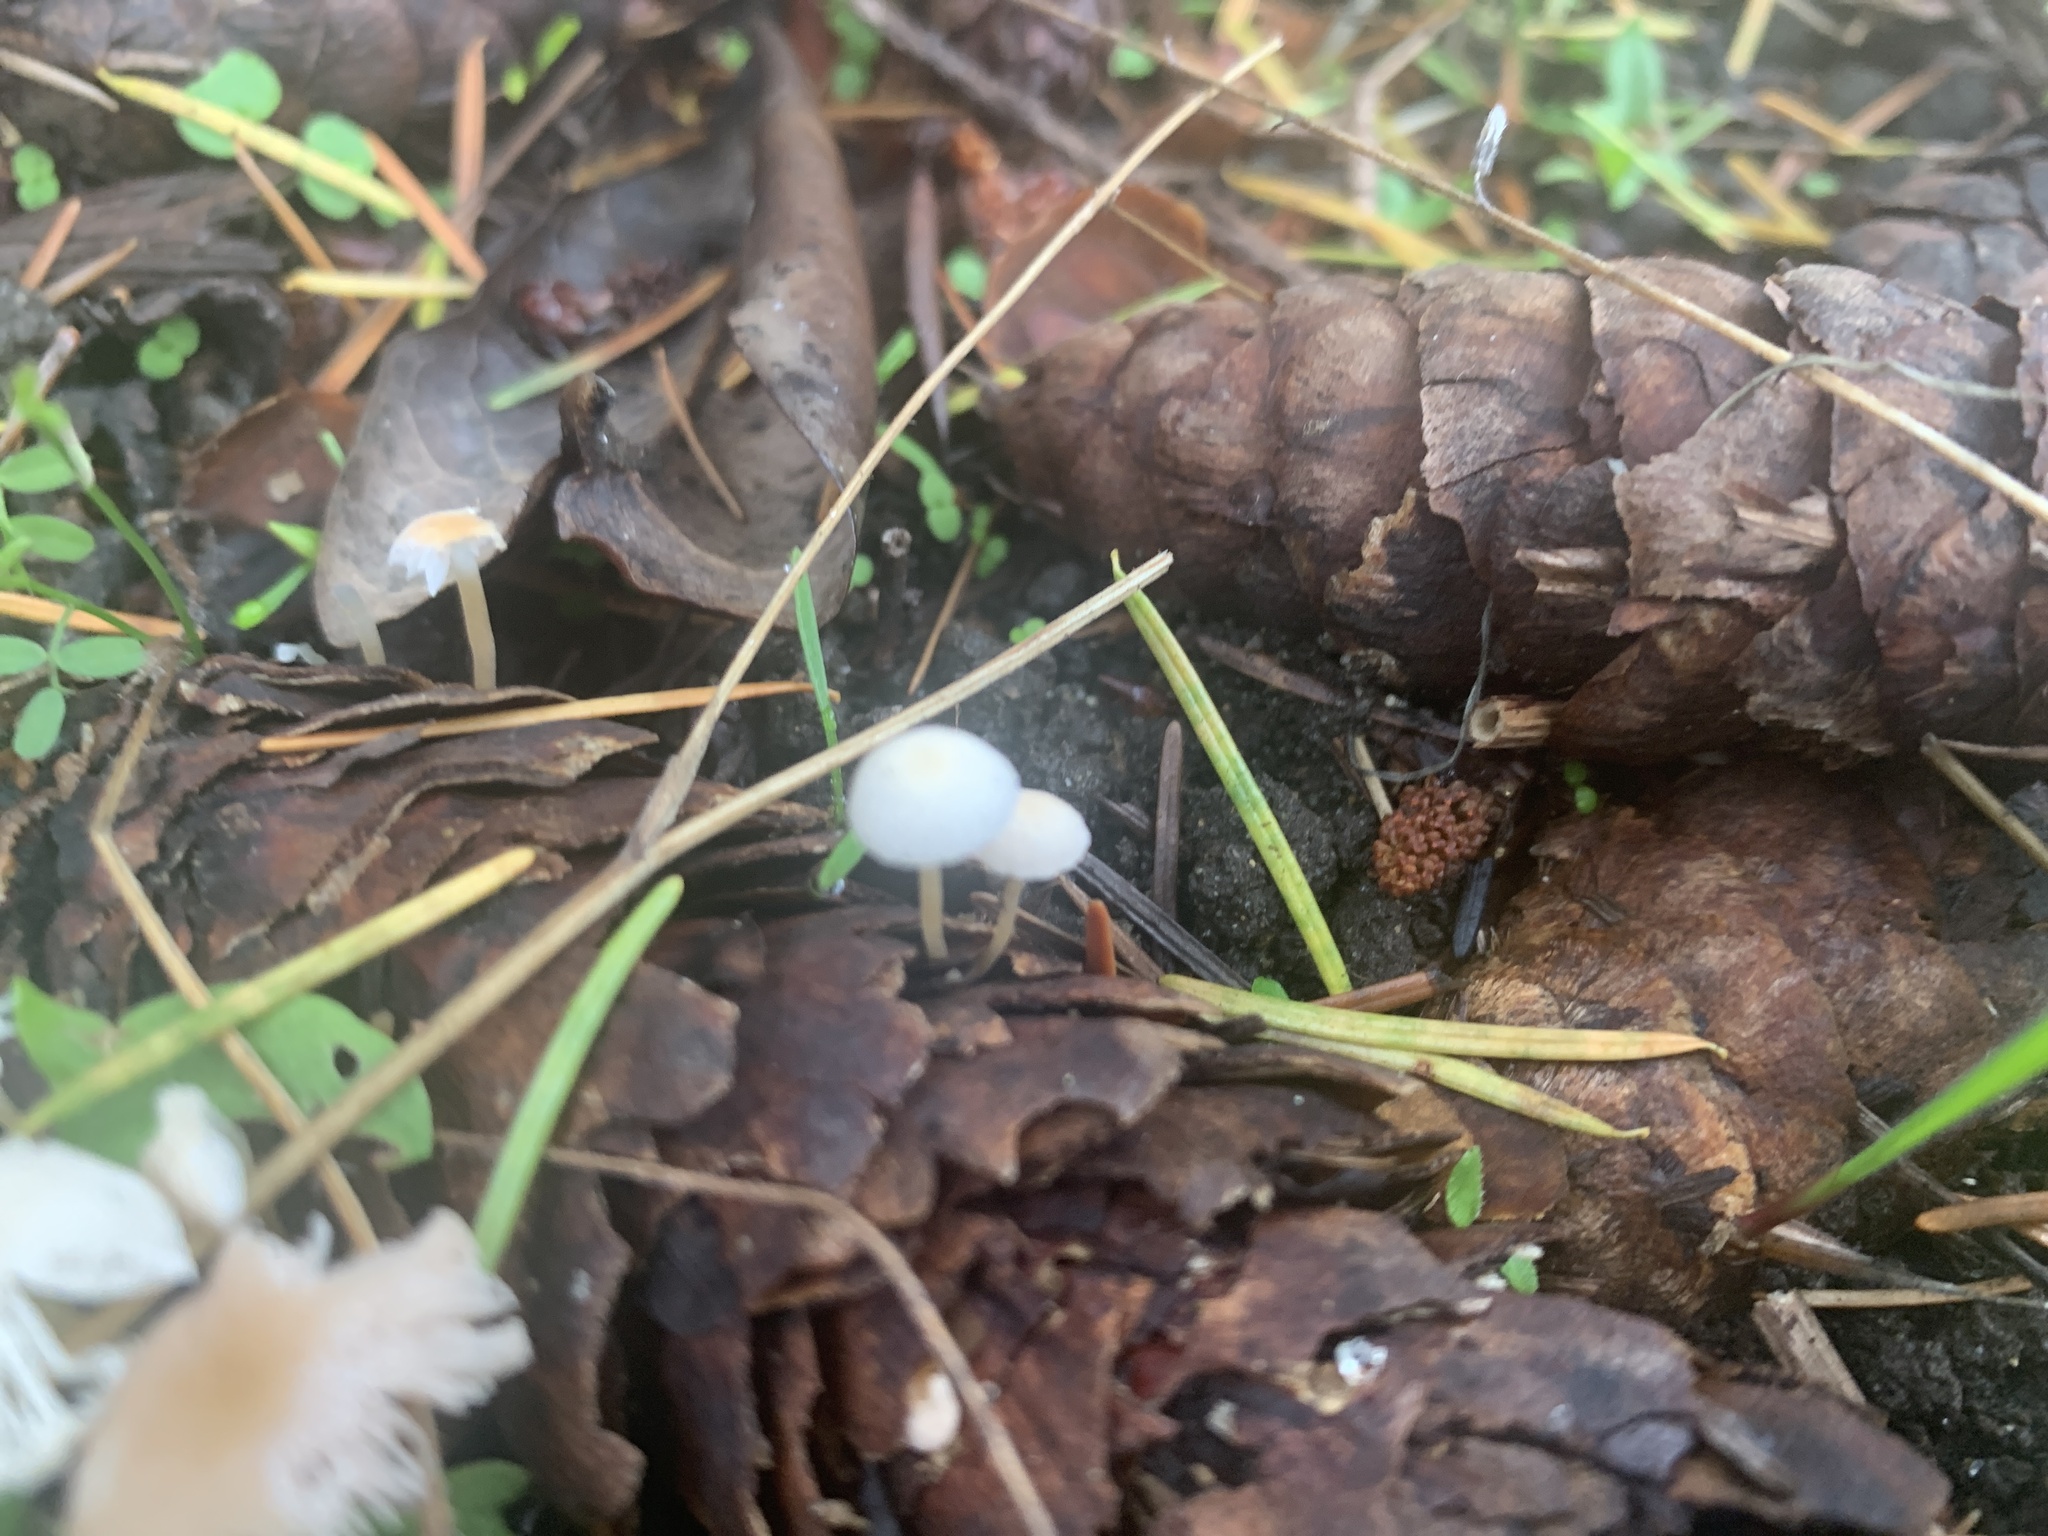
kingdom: Fungi
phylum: Basidiomycota
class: Agaricomycetes
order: Agaricales
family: Physalacriaceae
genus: Strobilurus
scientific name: Strobilurus trullisatus
